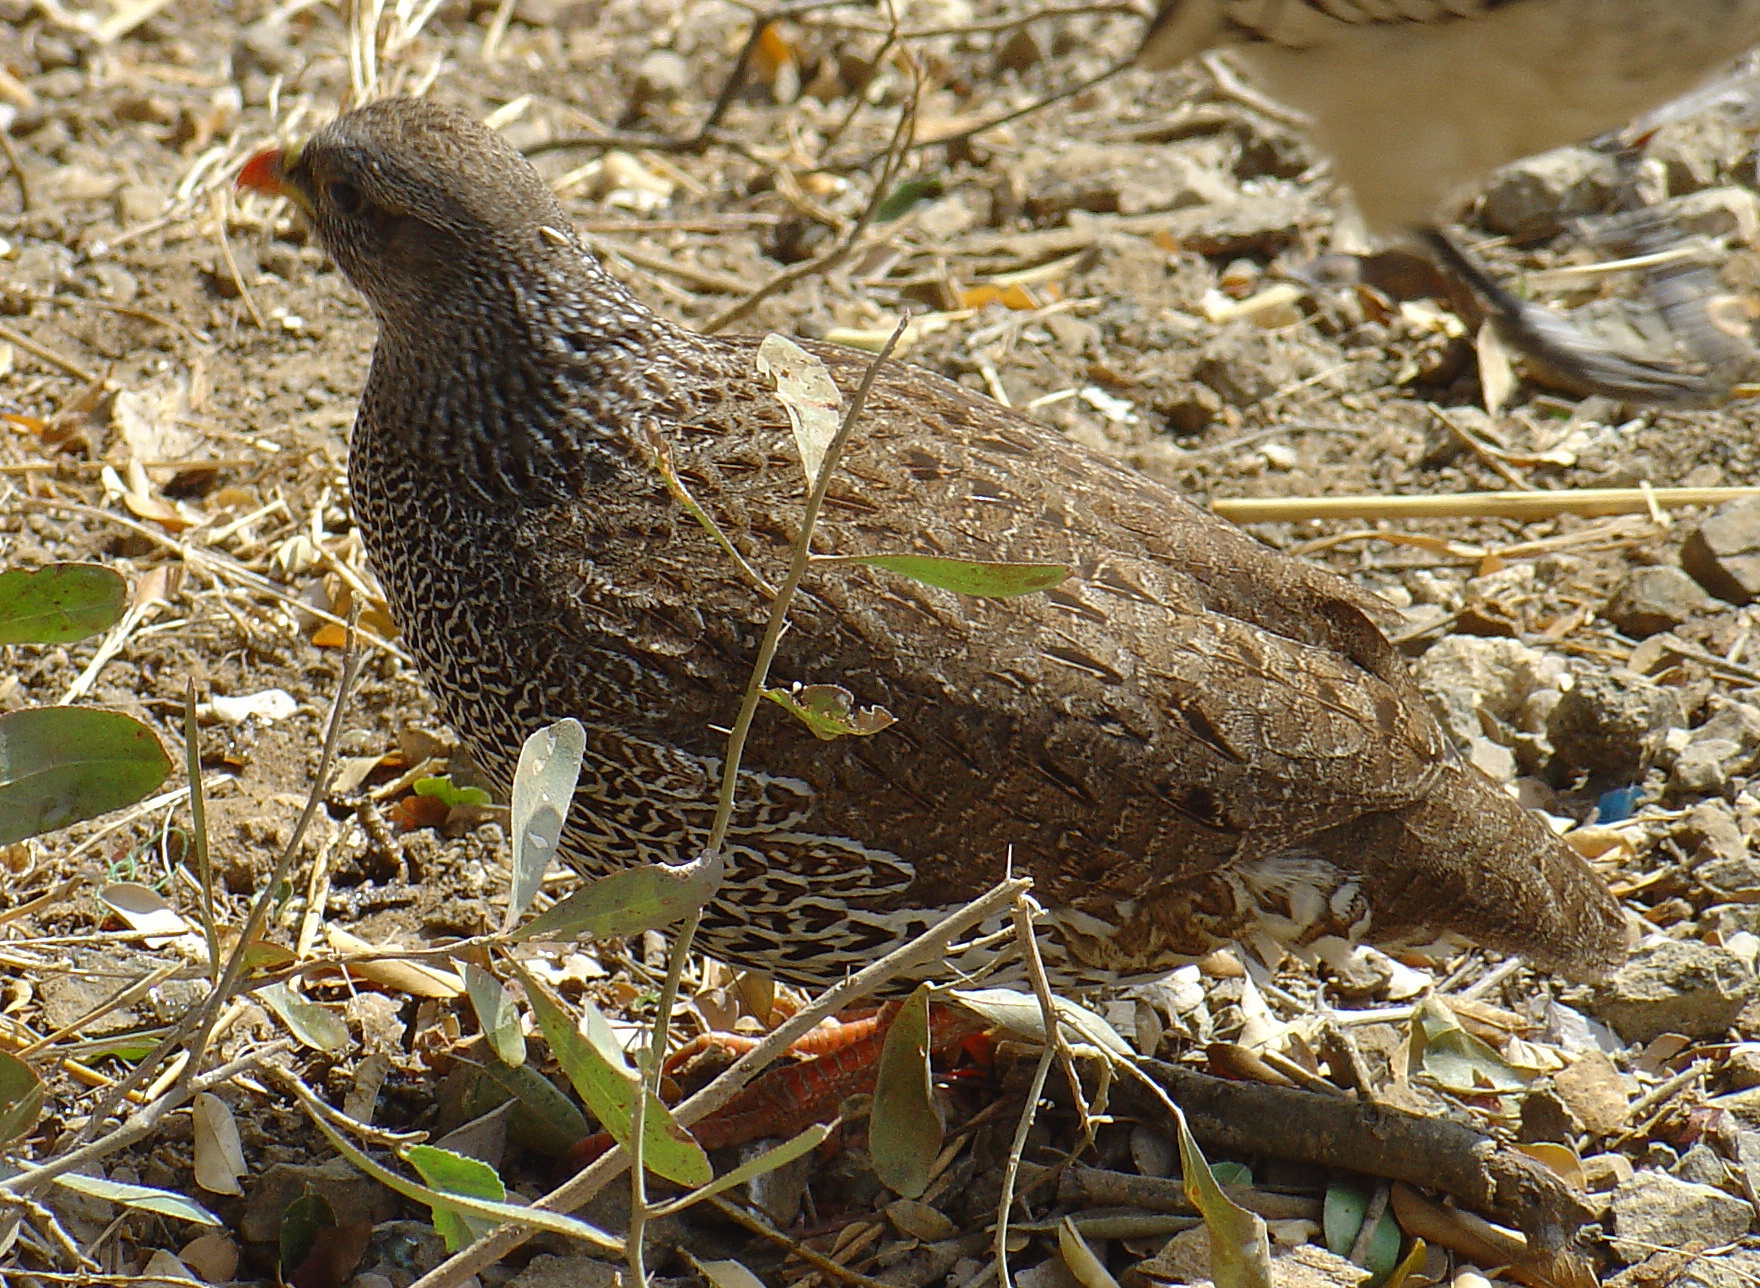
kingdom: Animalia
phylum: Chordata
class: Aves
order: Galliformes
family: Phasianidae
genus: Pternistis
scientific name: Pternistis natalensis
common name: Natal spurfowl
